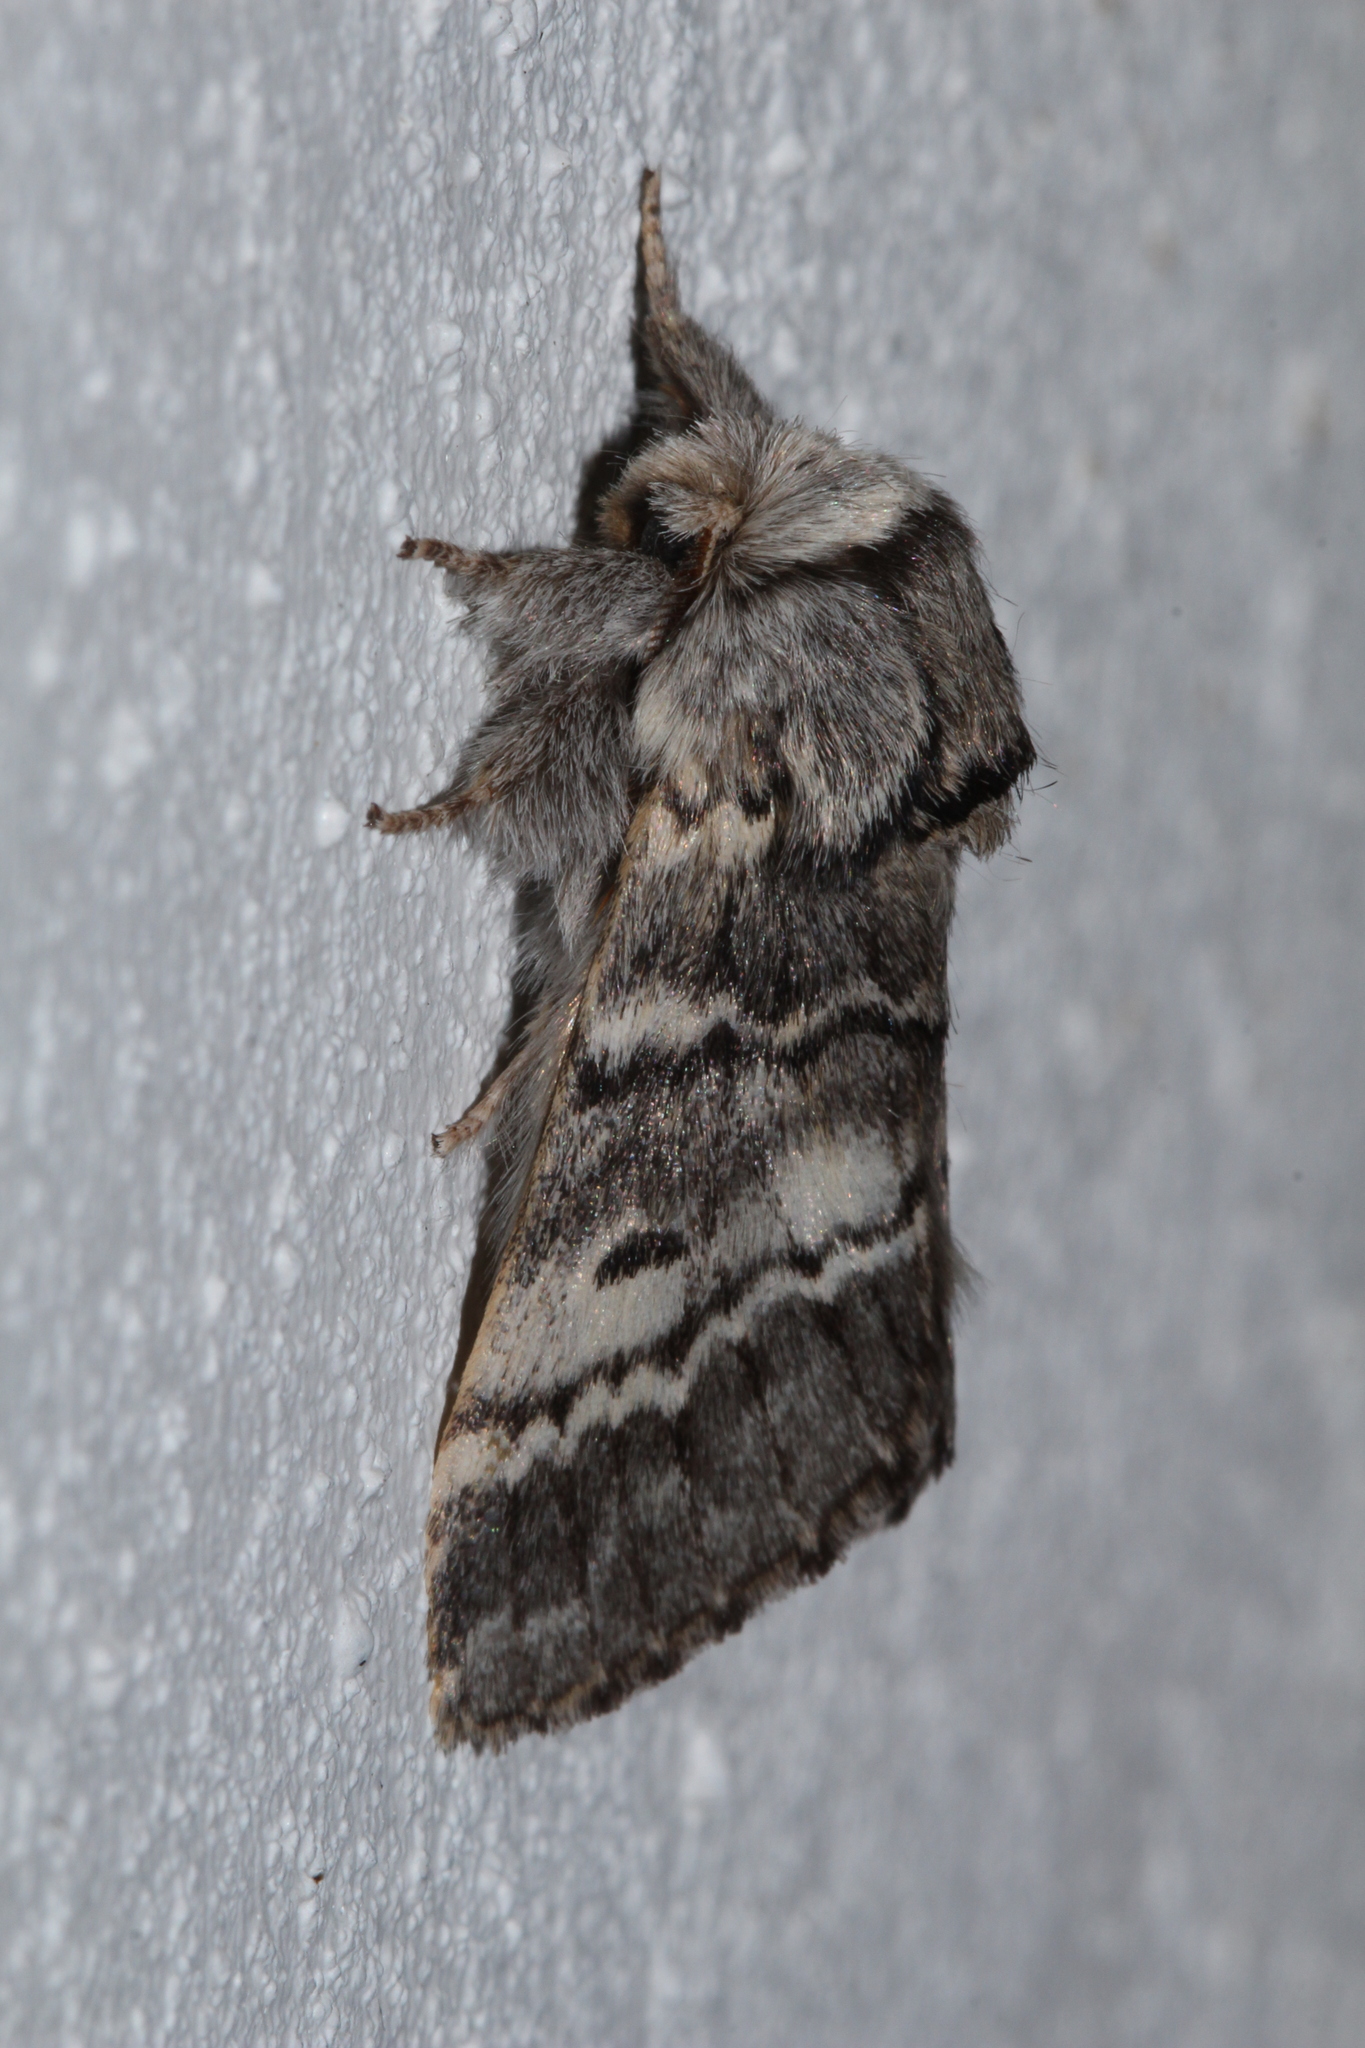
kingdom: Animalia
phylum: Arthropoda
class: Insecta
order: Lepidoptera
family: Notodontidae
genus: Drymonia
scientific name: Drymonia ruficornis
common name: Lunar marbled brown
